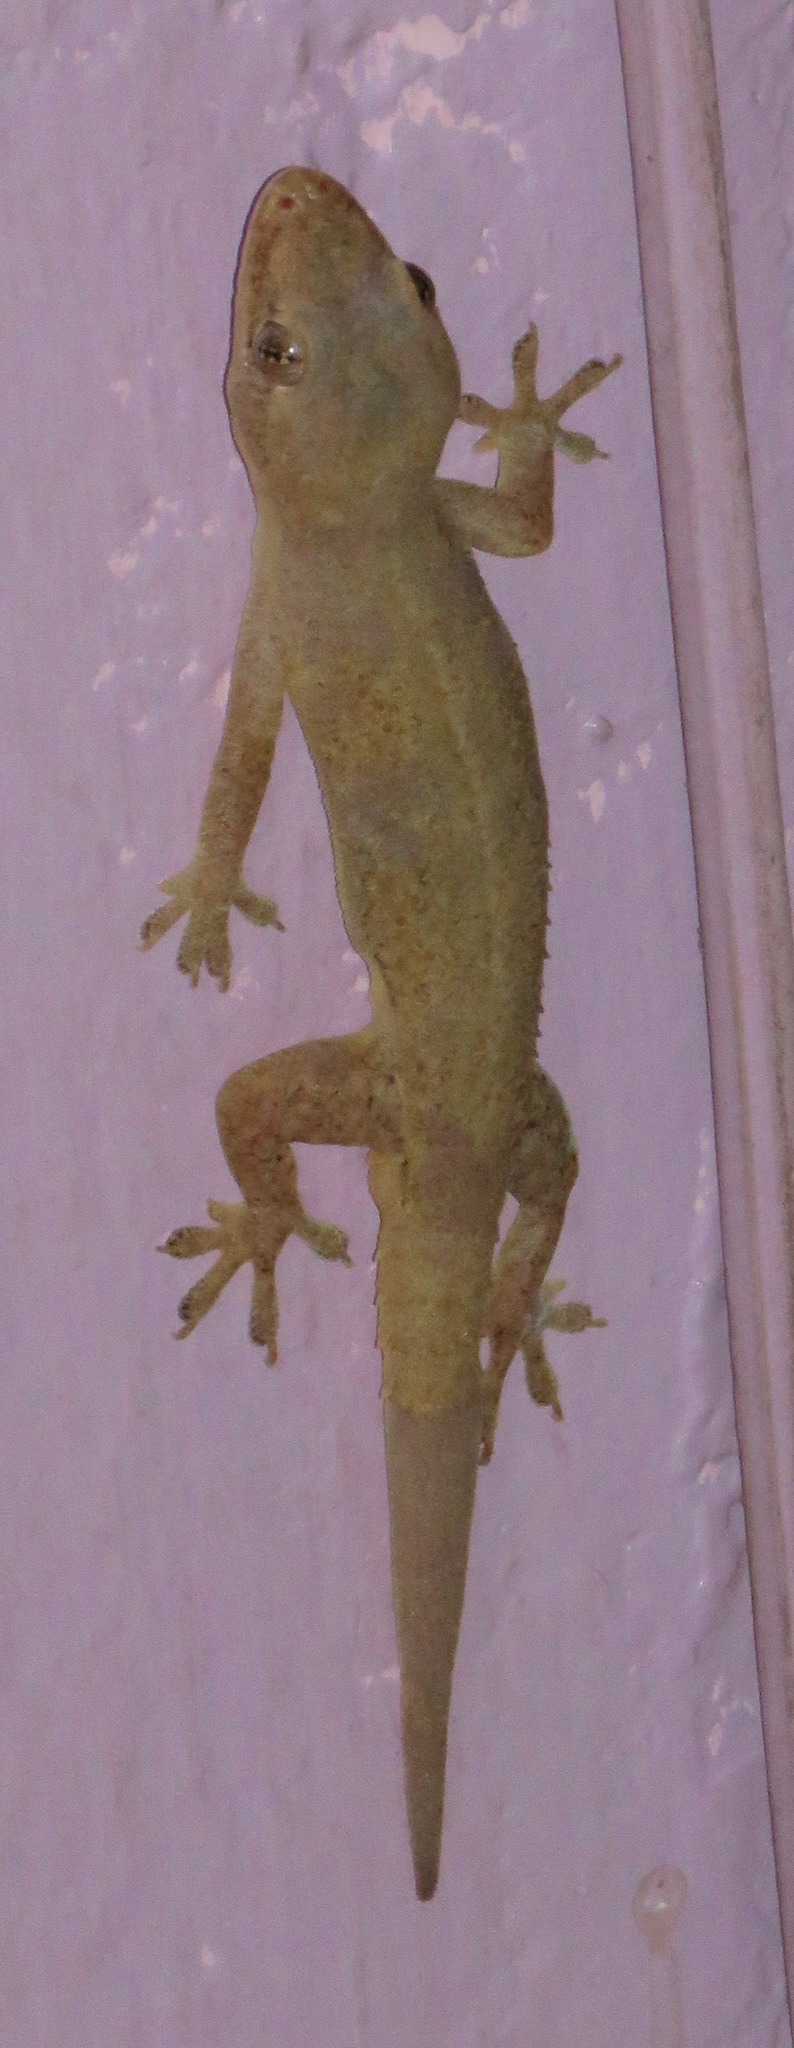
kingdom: Animalia
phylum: Chordata
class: Squamata
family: Gekkonidae
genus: Hemidactylus
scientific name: Hemidactylus frenatus
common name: Common house gecko
